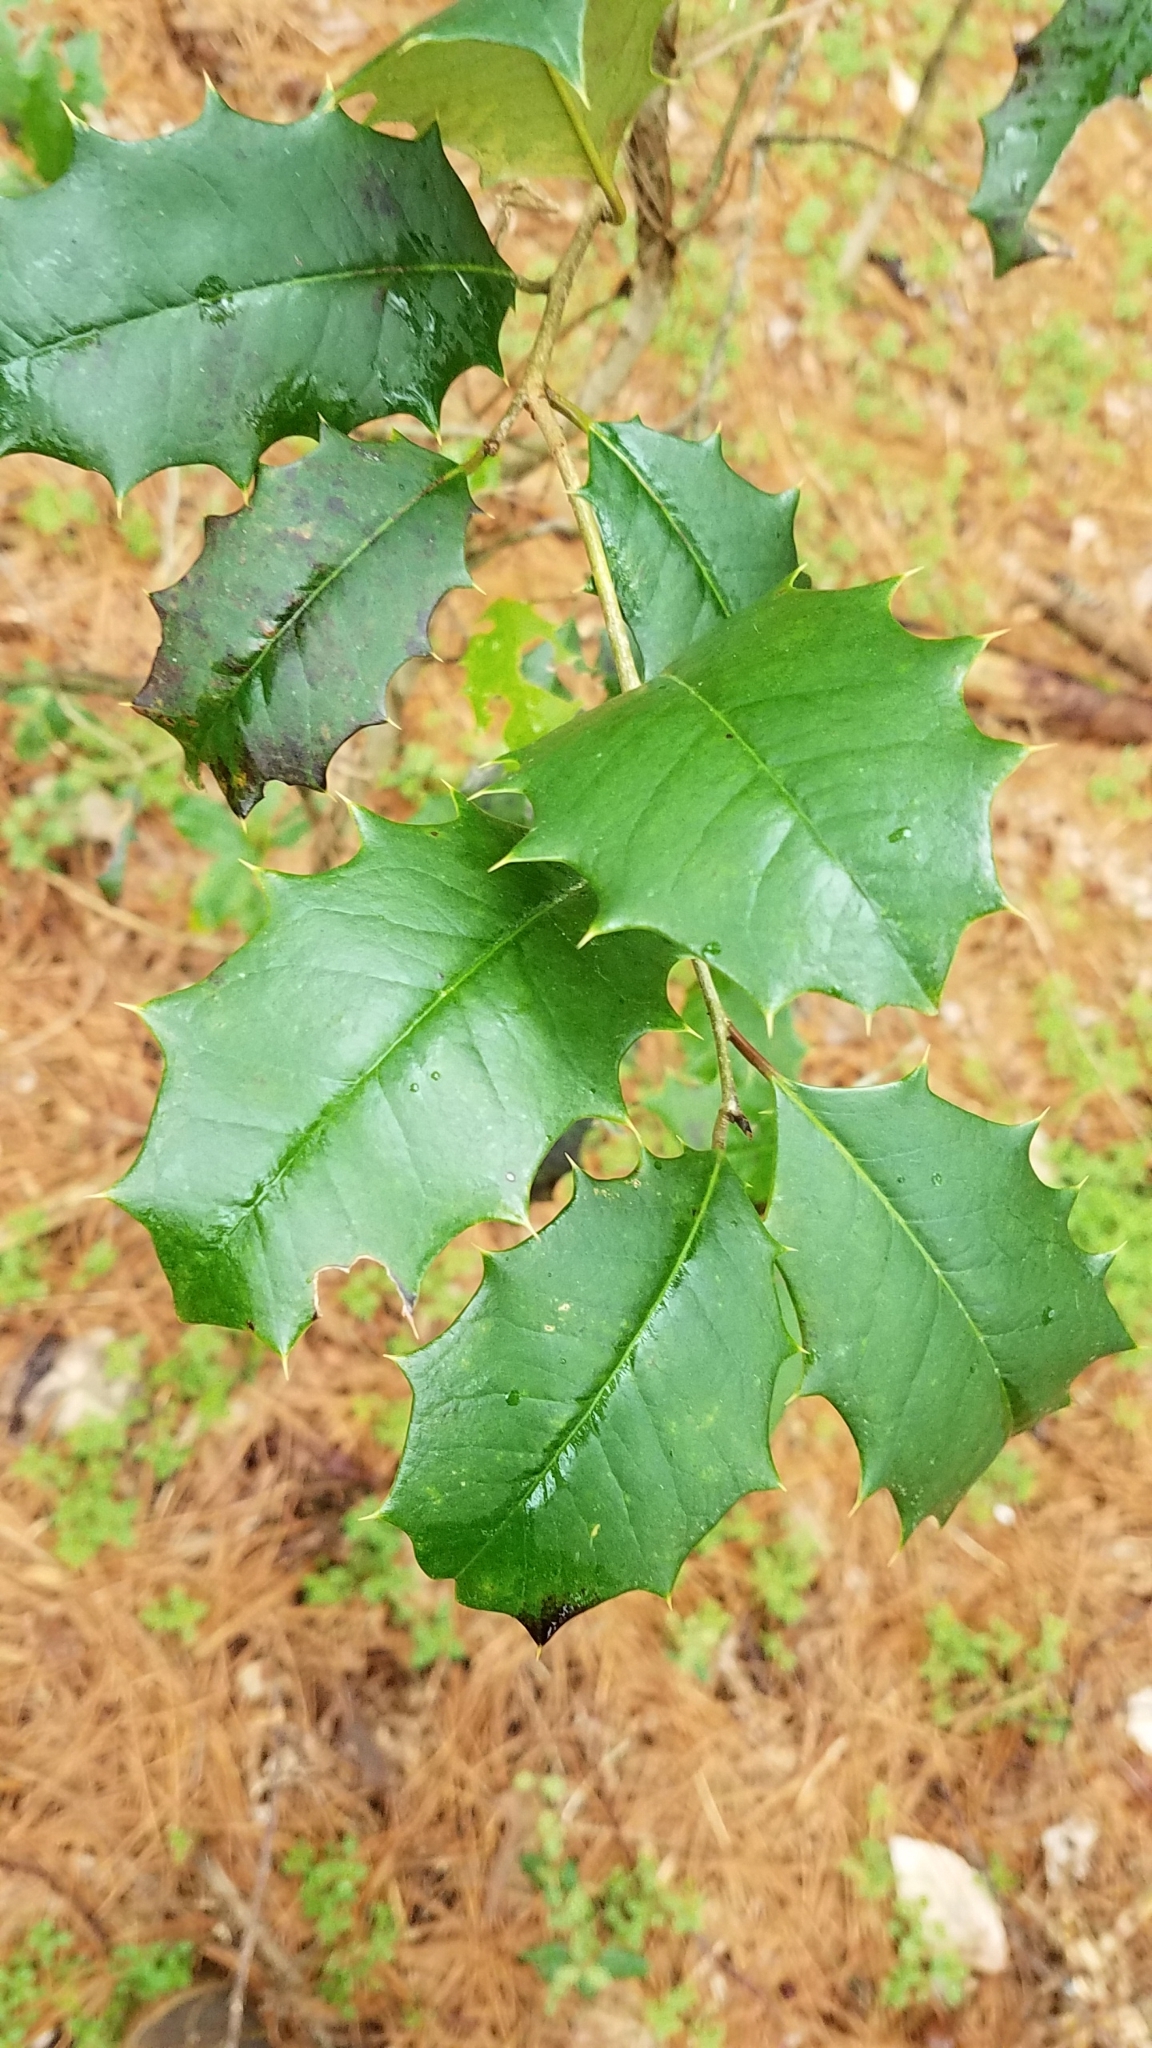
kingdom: Plantae
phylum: Tracheophyta
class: Magnoliopsida
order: Aquifoliales
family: Aquifoliaceae
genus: Ilex
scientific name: Ilex opaca
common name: American holly
